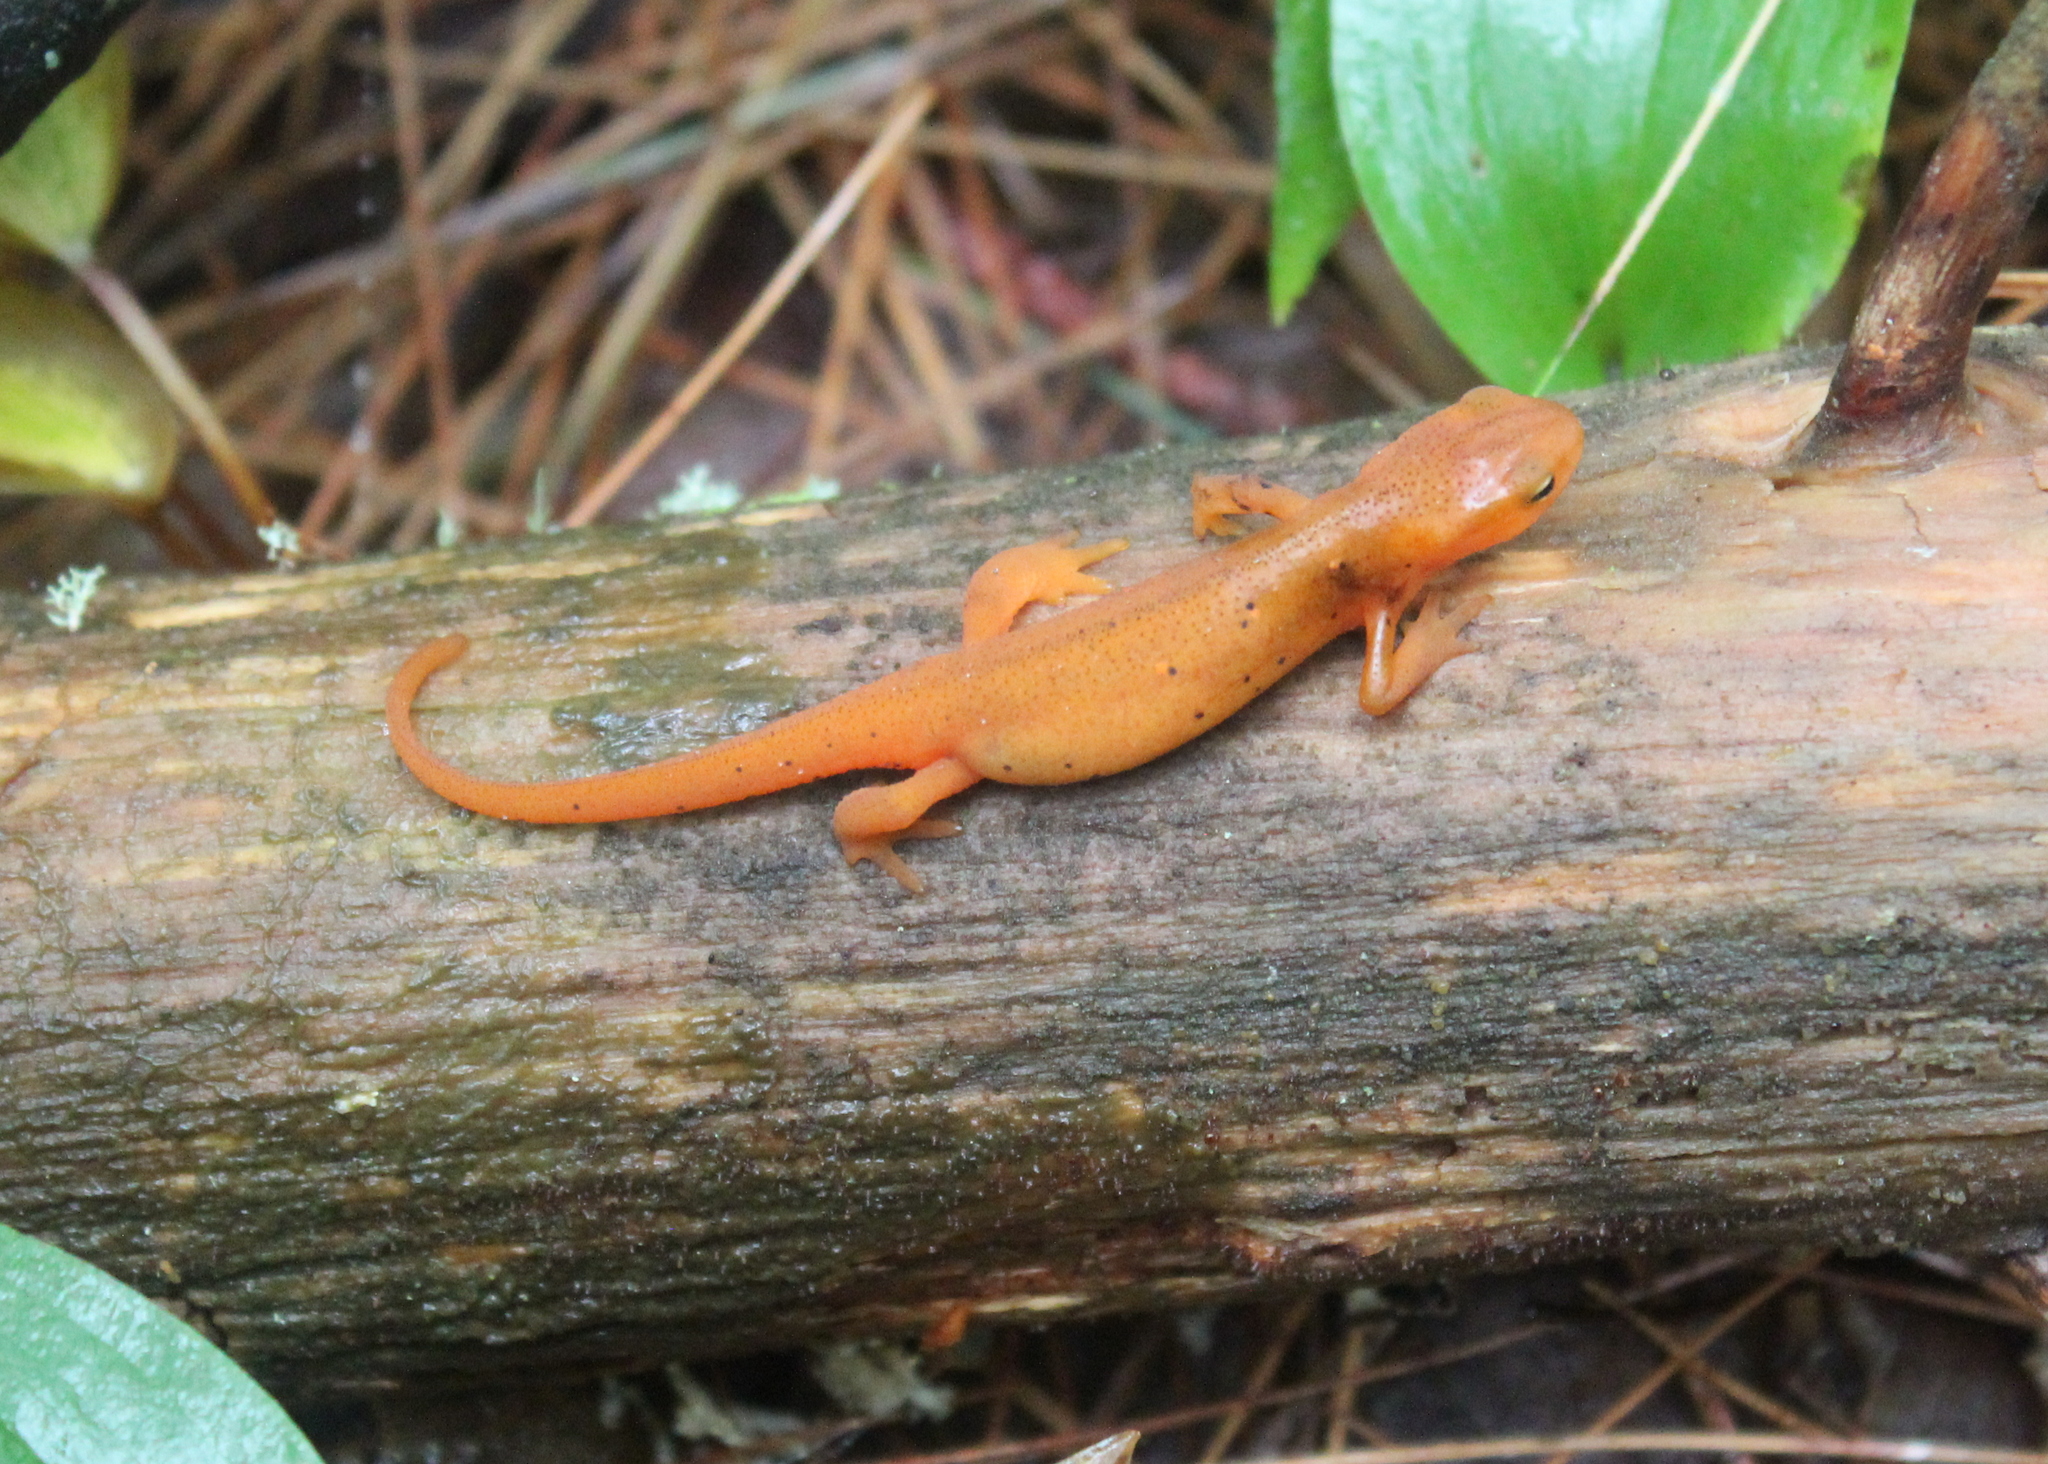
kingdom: Animalia
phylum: Chordata
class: Amphibia
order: Caudata
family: Salamandridae
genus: Notophthalmus
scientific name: Notophthalmus viridescens
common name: Eastern newt
